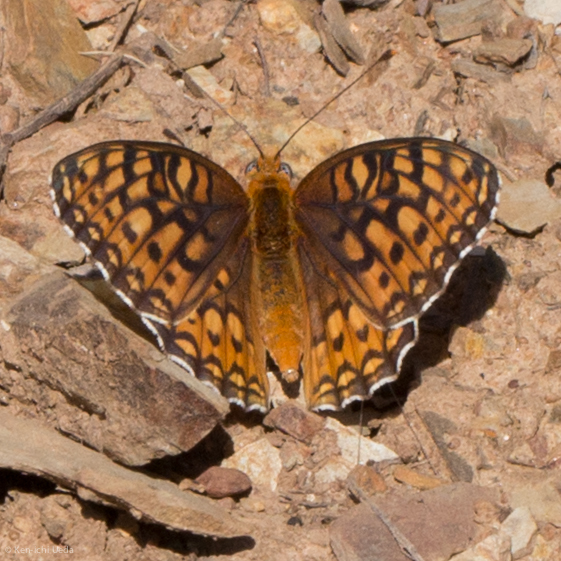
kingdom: Animalia
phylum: Arthropoda
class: Insecta
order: Lepidoptera
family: Nymphalidae
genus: Speyeria
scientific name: Speyeria callippe
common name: Callippe fritillary
